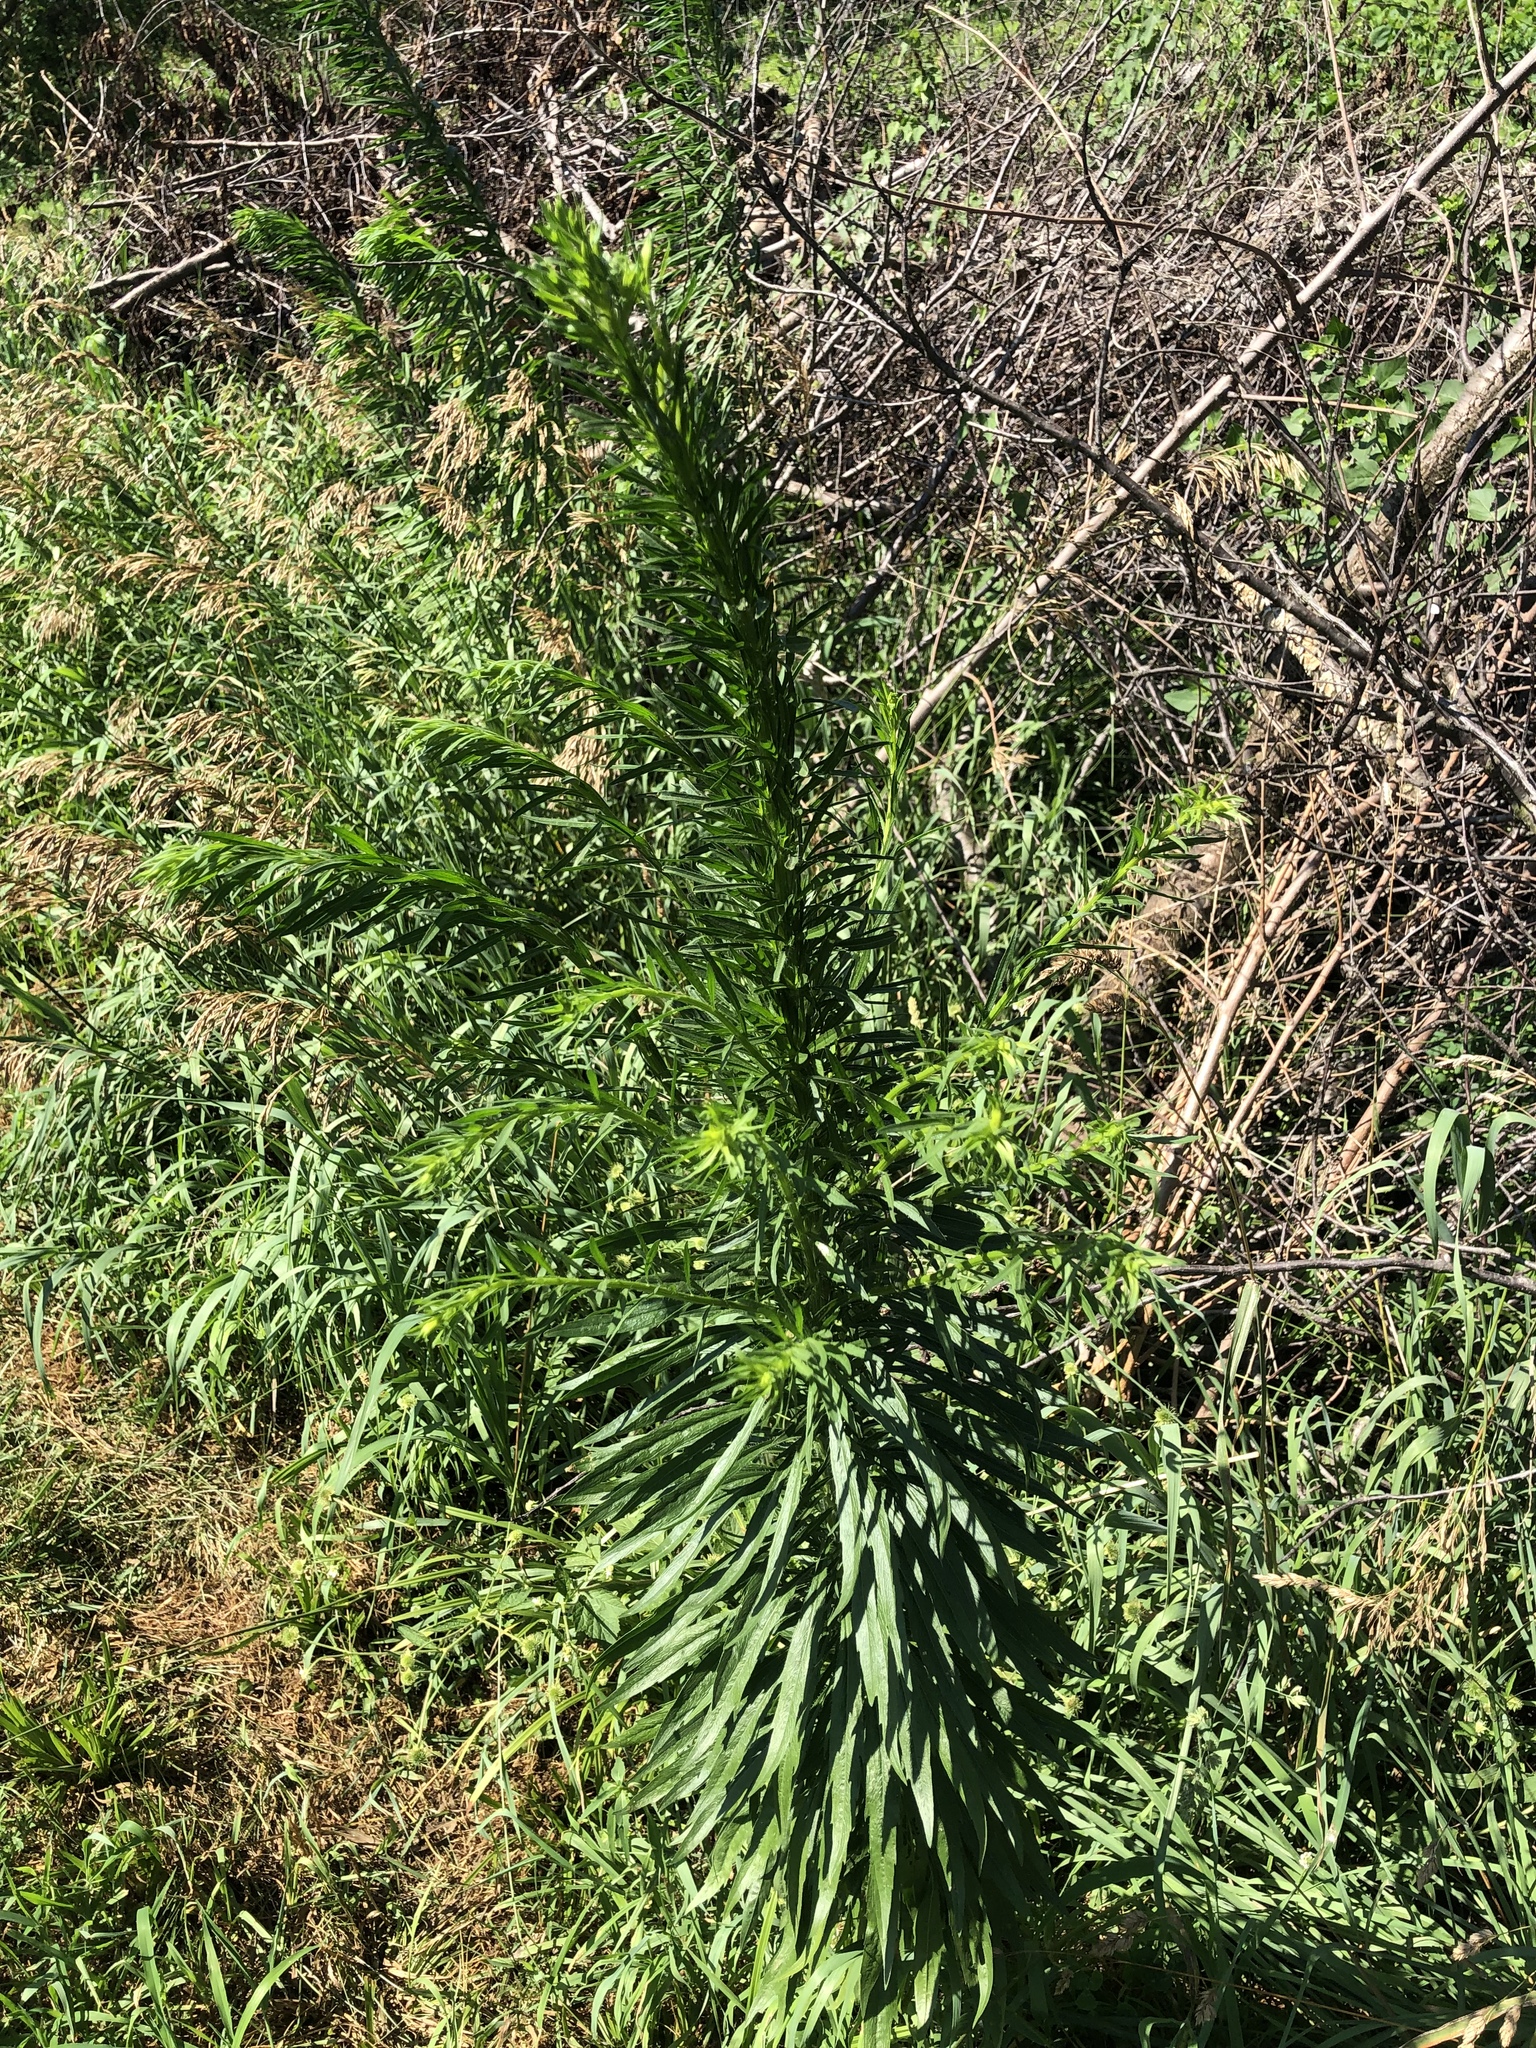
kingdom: Plantae
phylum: Tracheophyta
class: Magnoliopsida
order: Asterales
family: Asteraceae
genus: Erigeron
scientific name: Erigeron canadensis
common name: Canadian fleabane
